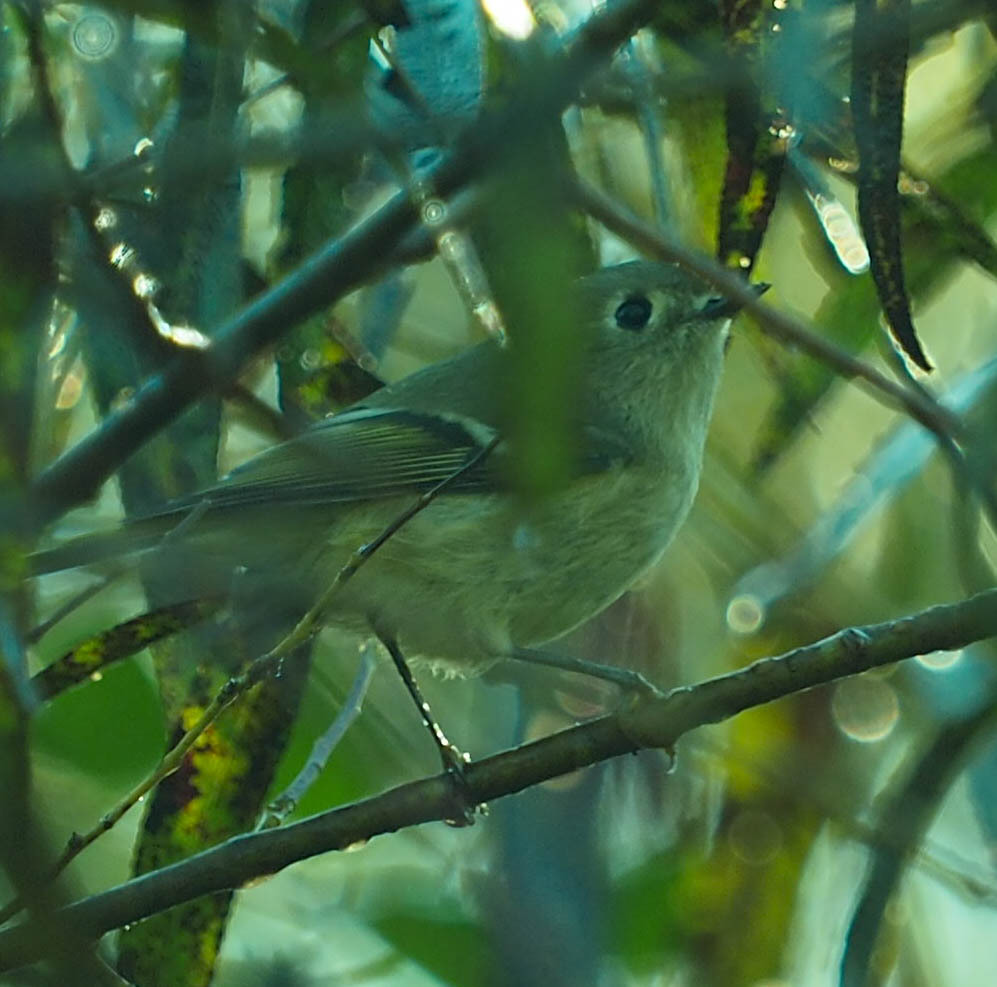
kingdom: Animalia
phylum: Chordata
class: Aves
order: Passeriformes
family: Regulidae
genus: Regulus
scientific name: Regulus calendula
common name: Ruby-crowned kinglet
